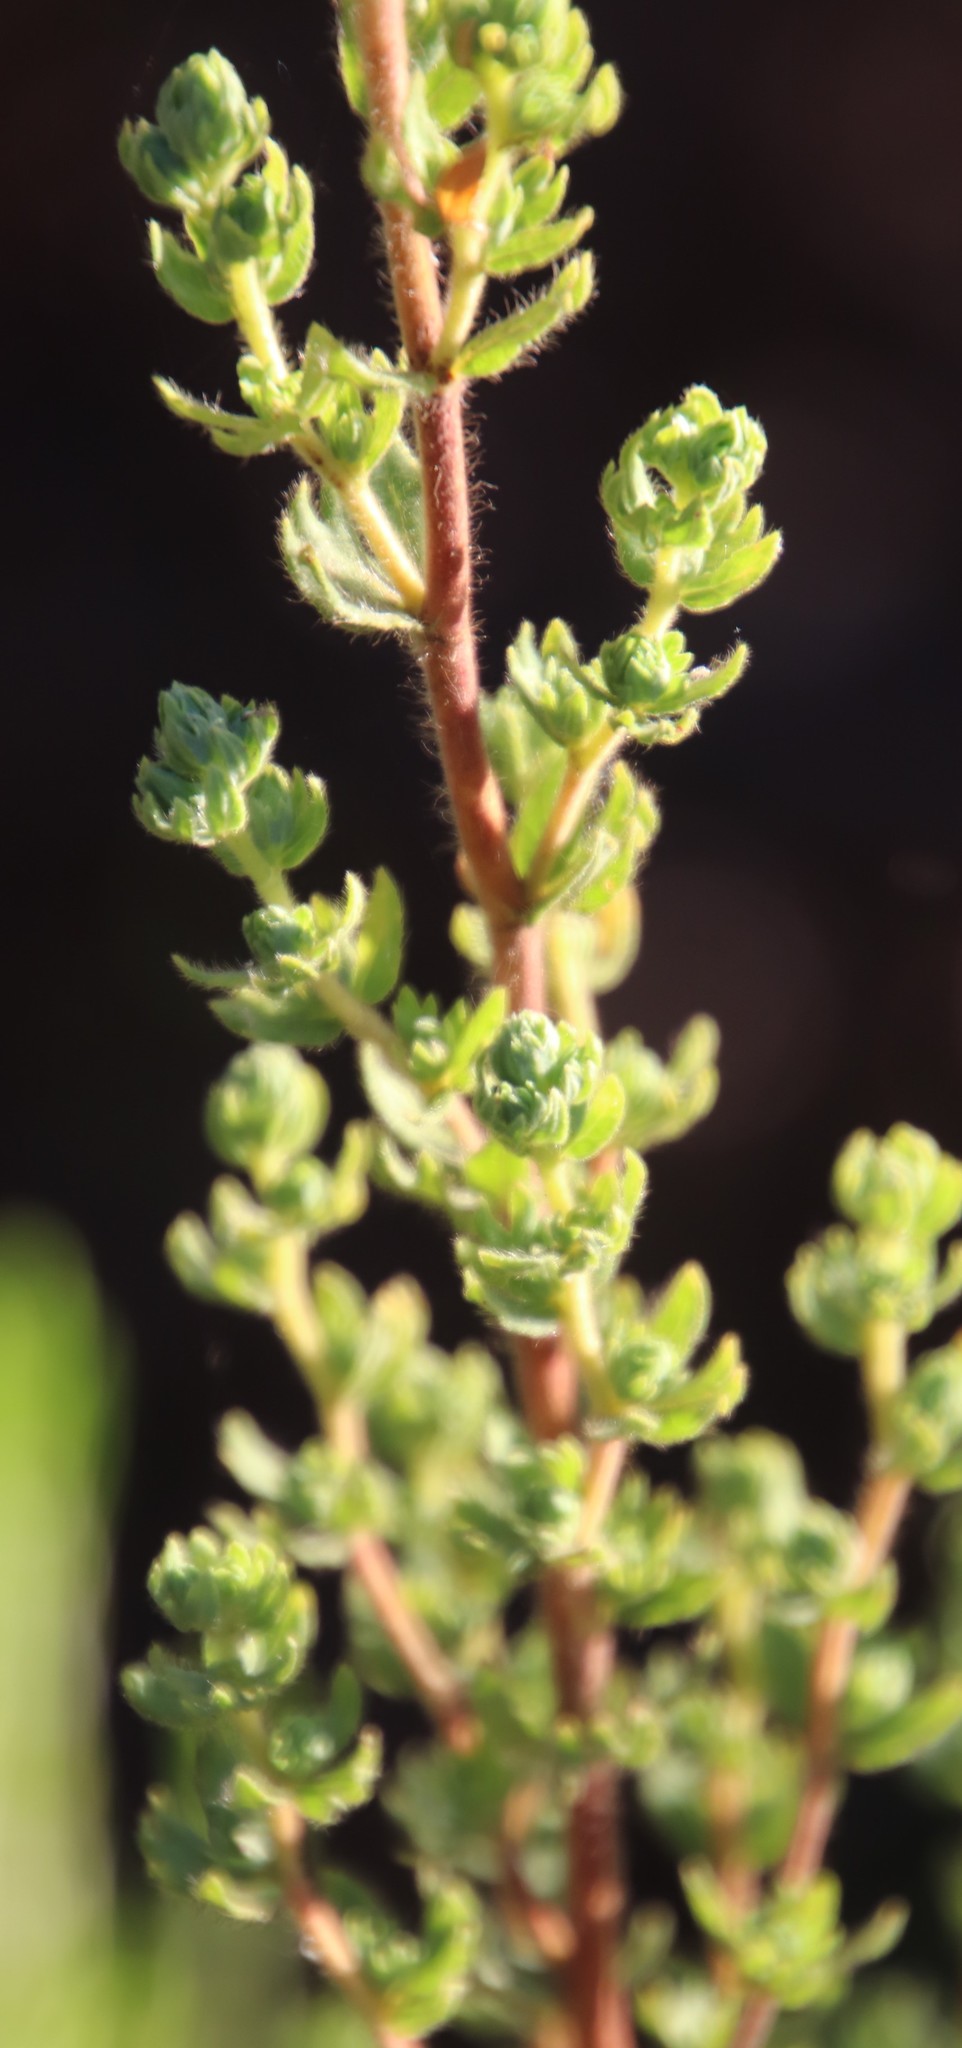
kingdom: Plantae
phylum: Tracheophyta
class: Magnoliopsida
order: Rosales
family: Rosaceae
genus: Cliffortia
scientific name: Cliffortia polygonifolia
